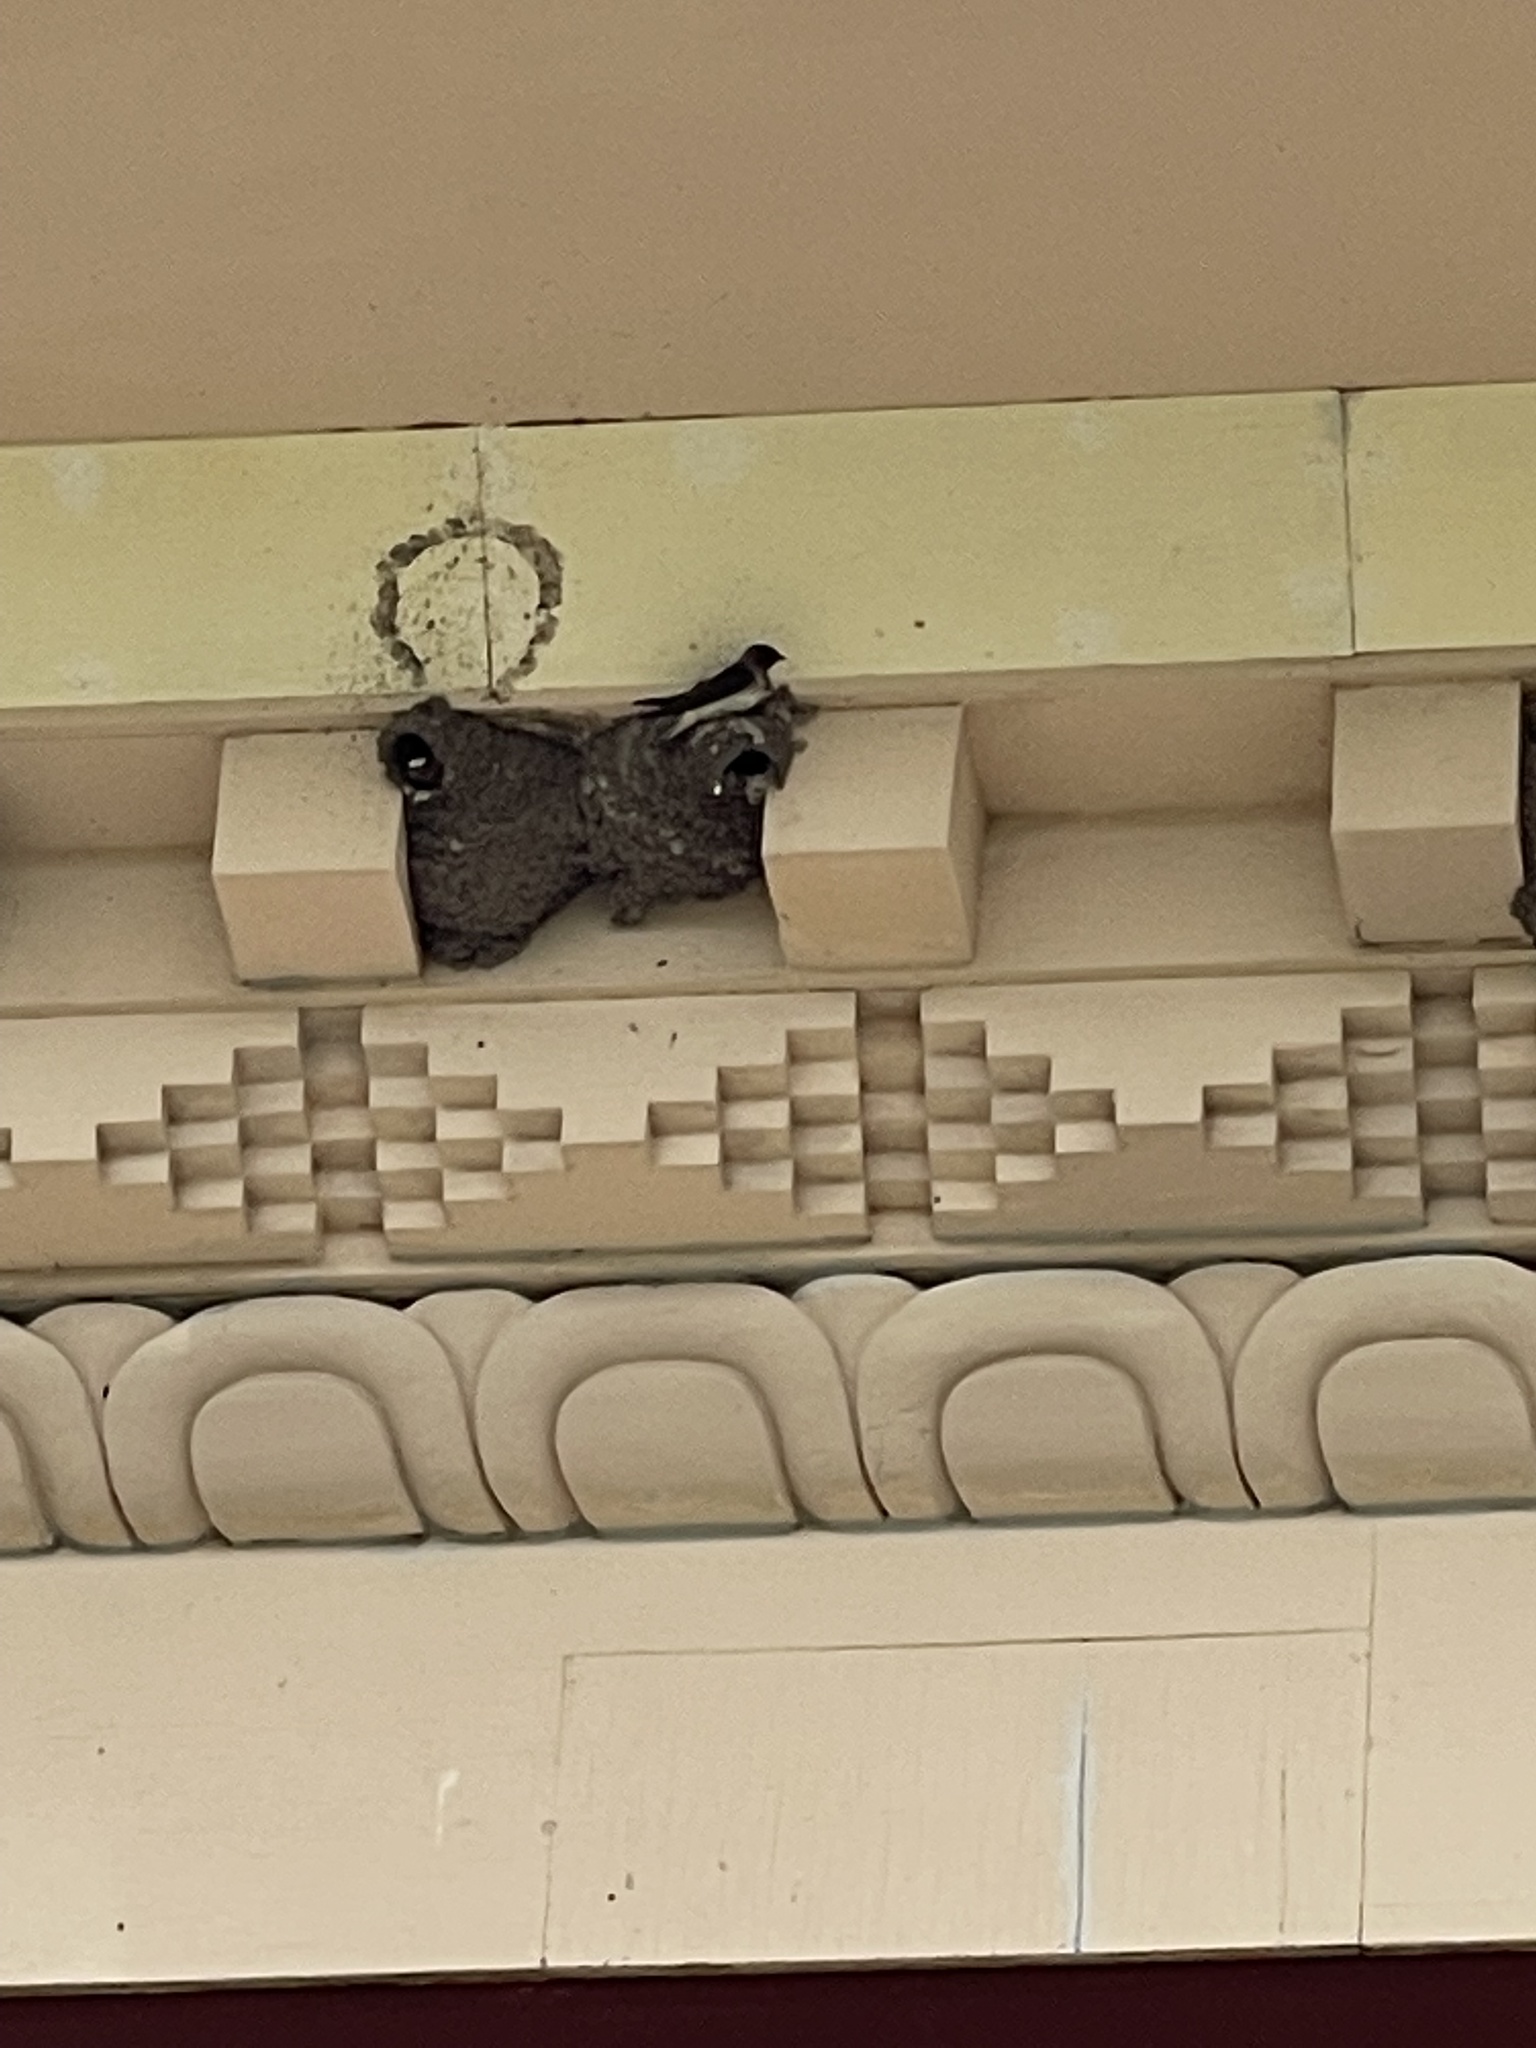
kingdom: Animalia
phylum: Chordata
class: Aves
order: Passeriformes
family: Hirundinidae
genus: Petrochelidon
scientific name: Petrochelidon pyrrhonota
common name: American cliff swallow
